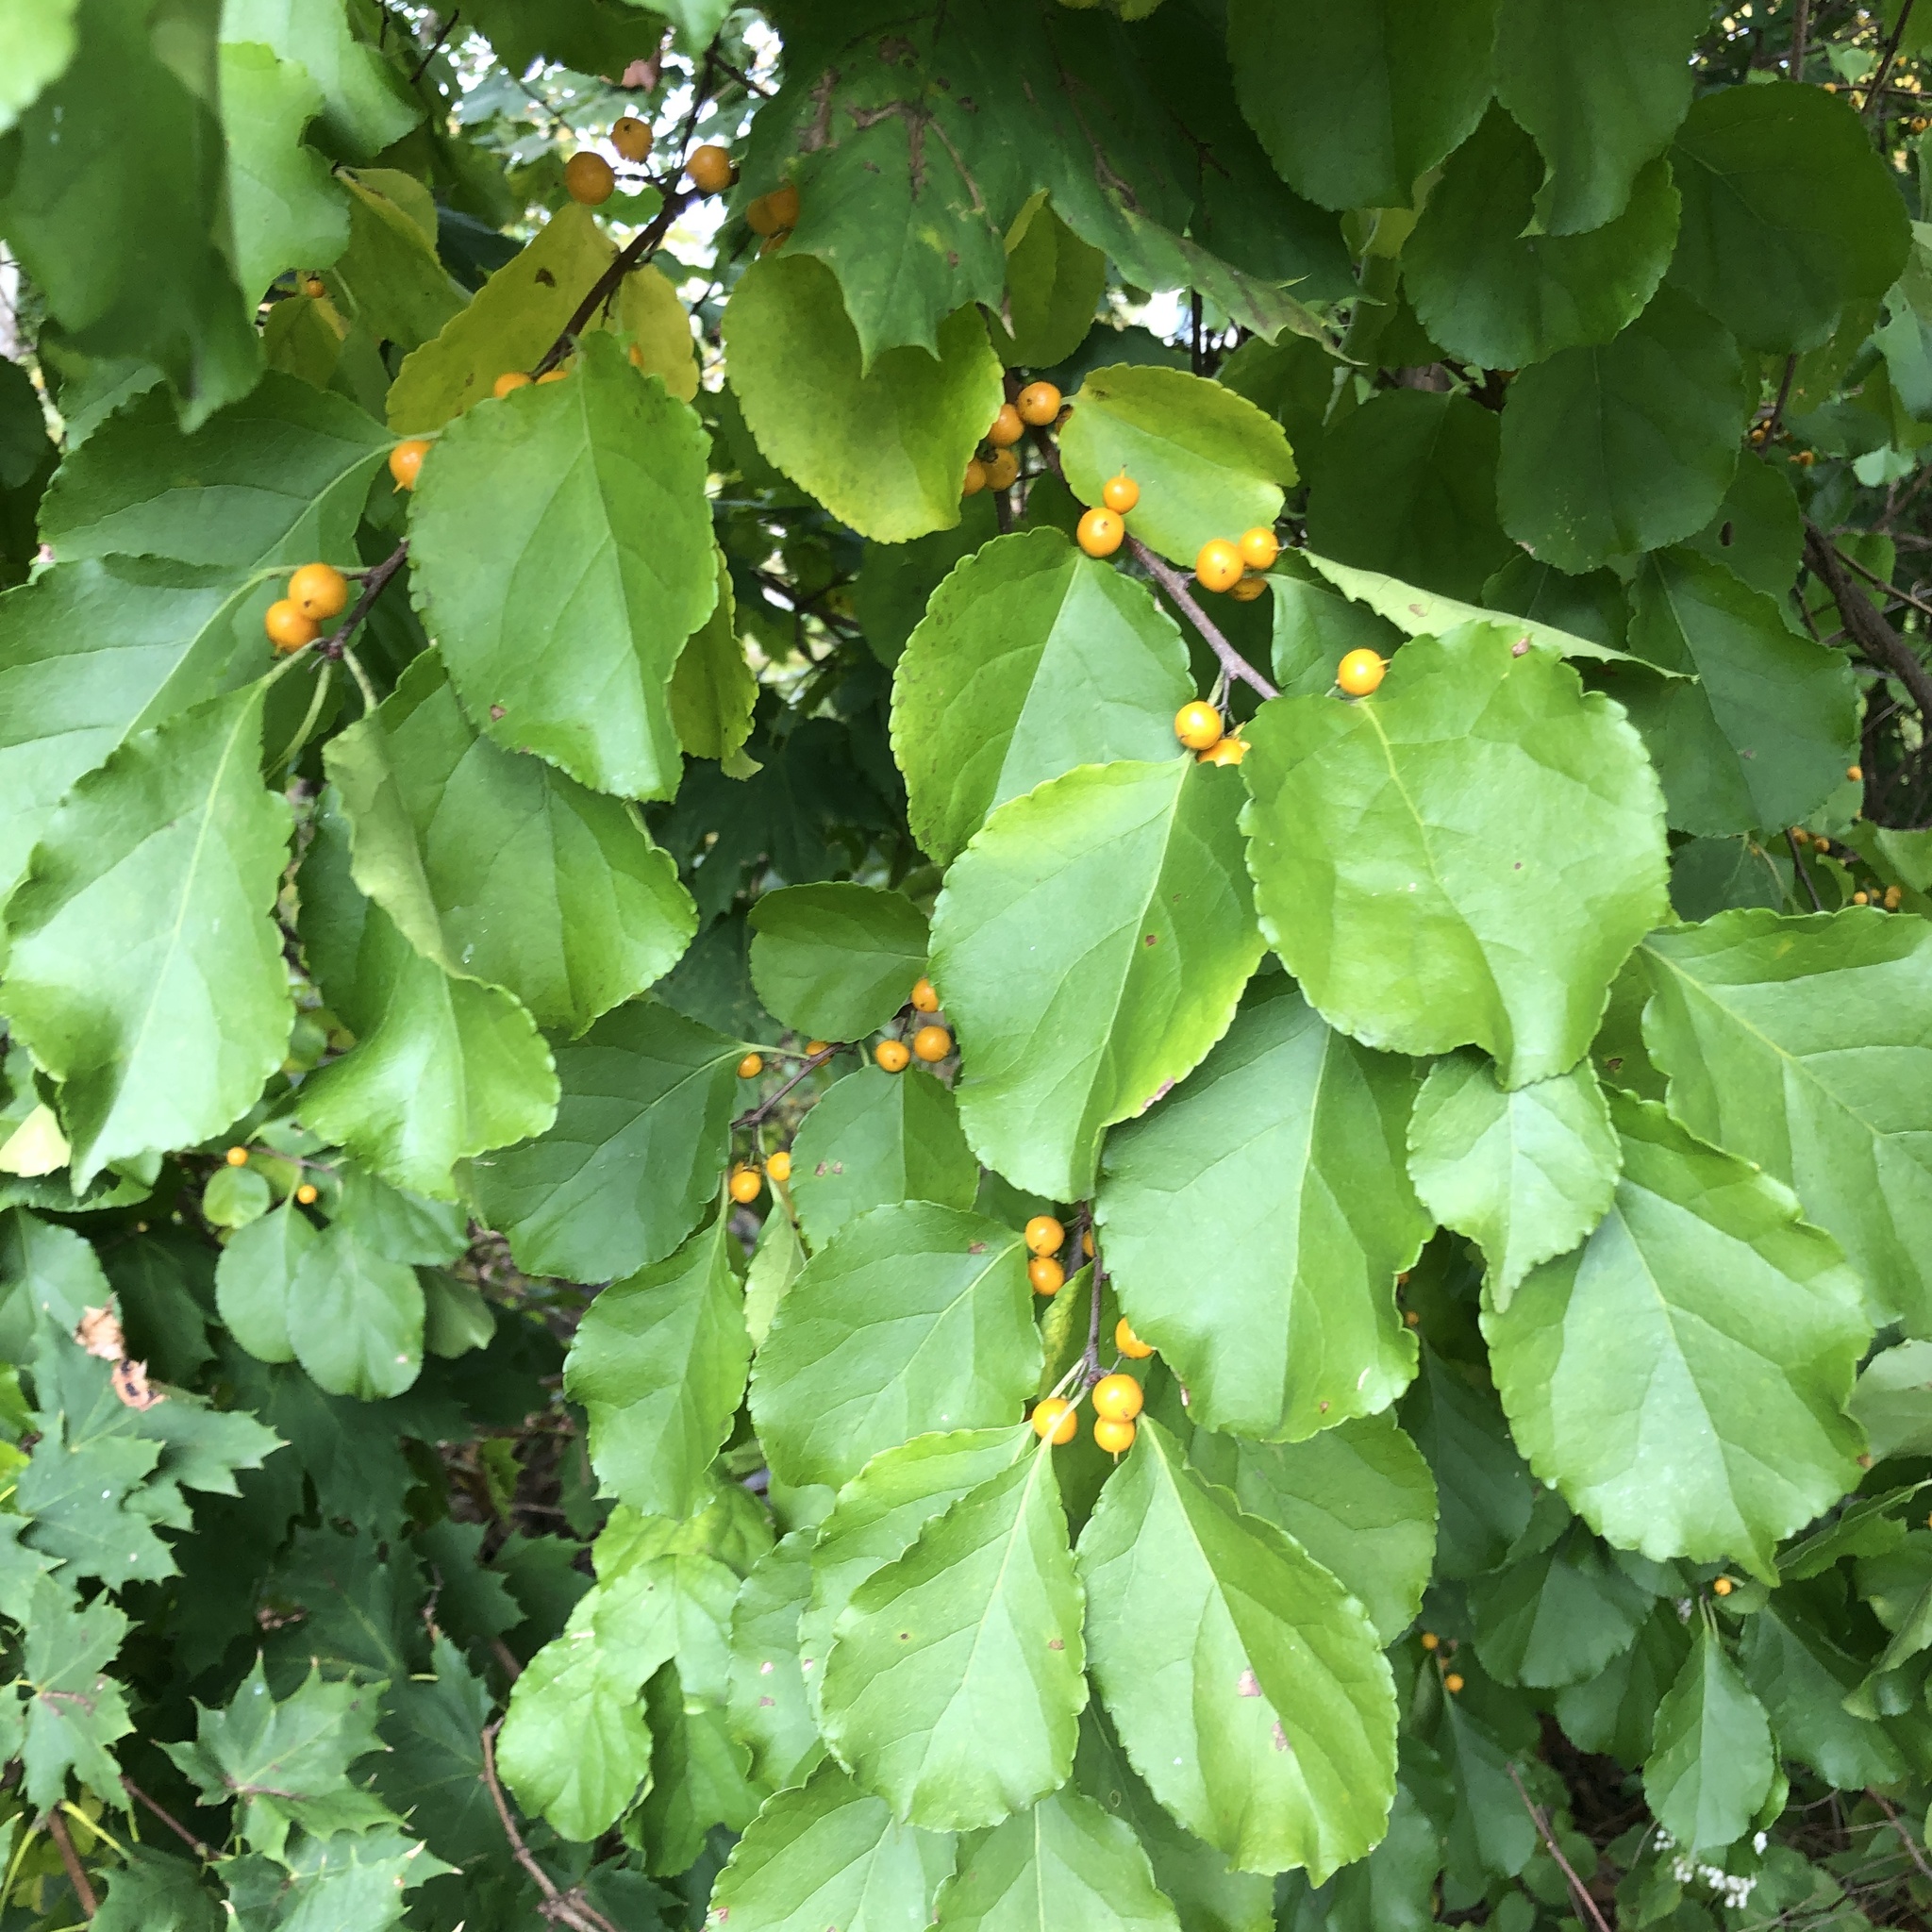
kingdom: Plantae
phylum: Tracheophyta
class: Magnoliopsida
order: Celastrales
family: Celastraceae
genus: Celastrus
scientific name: Celastrus orbiculatus
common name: Oriental bittersweet
